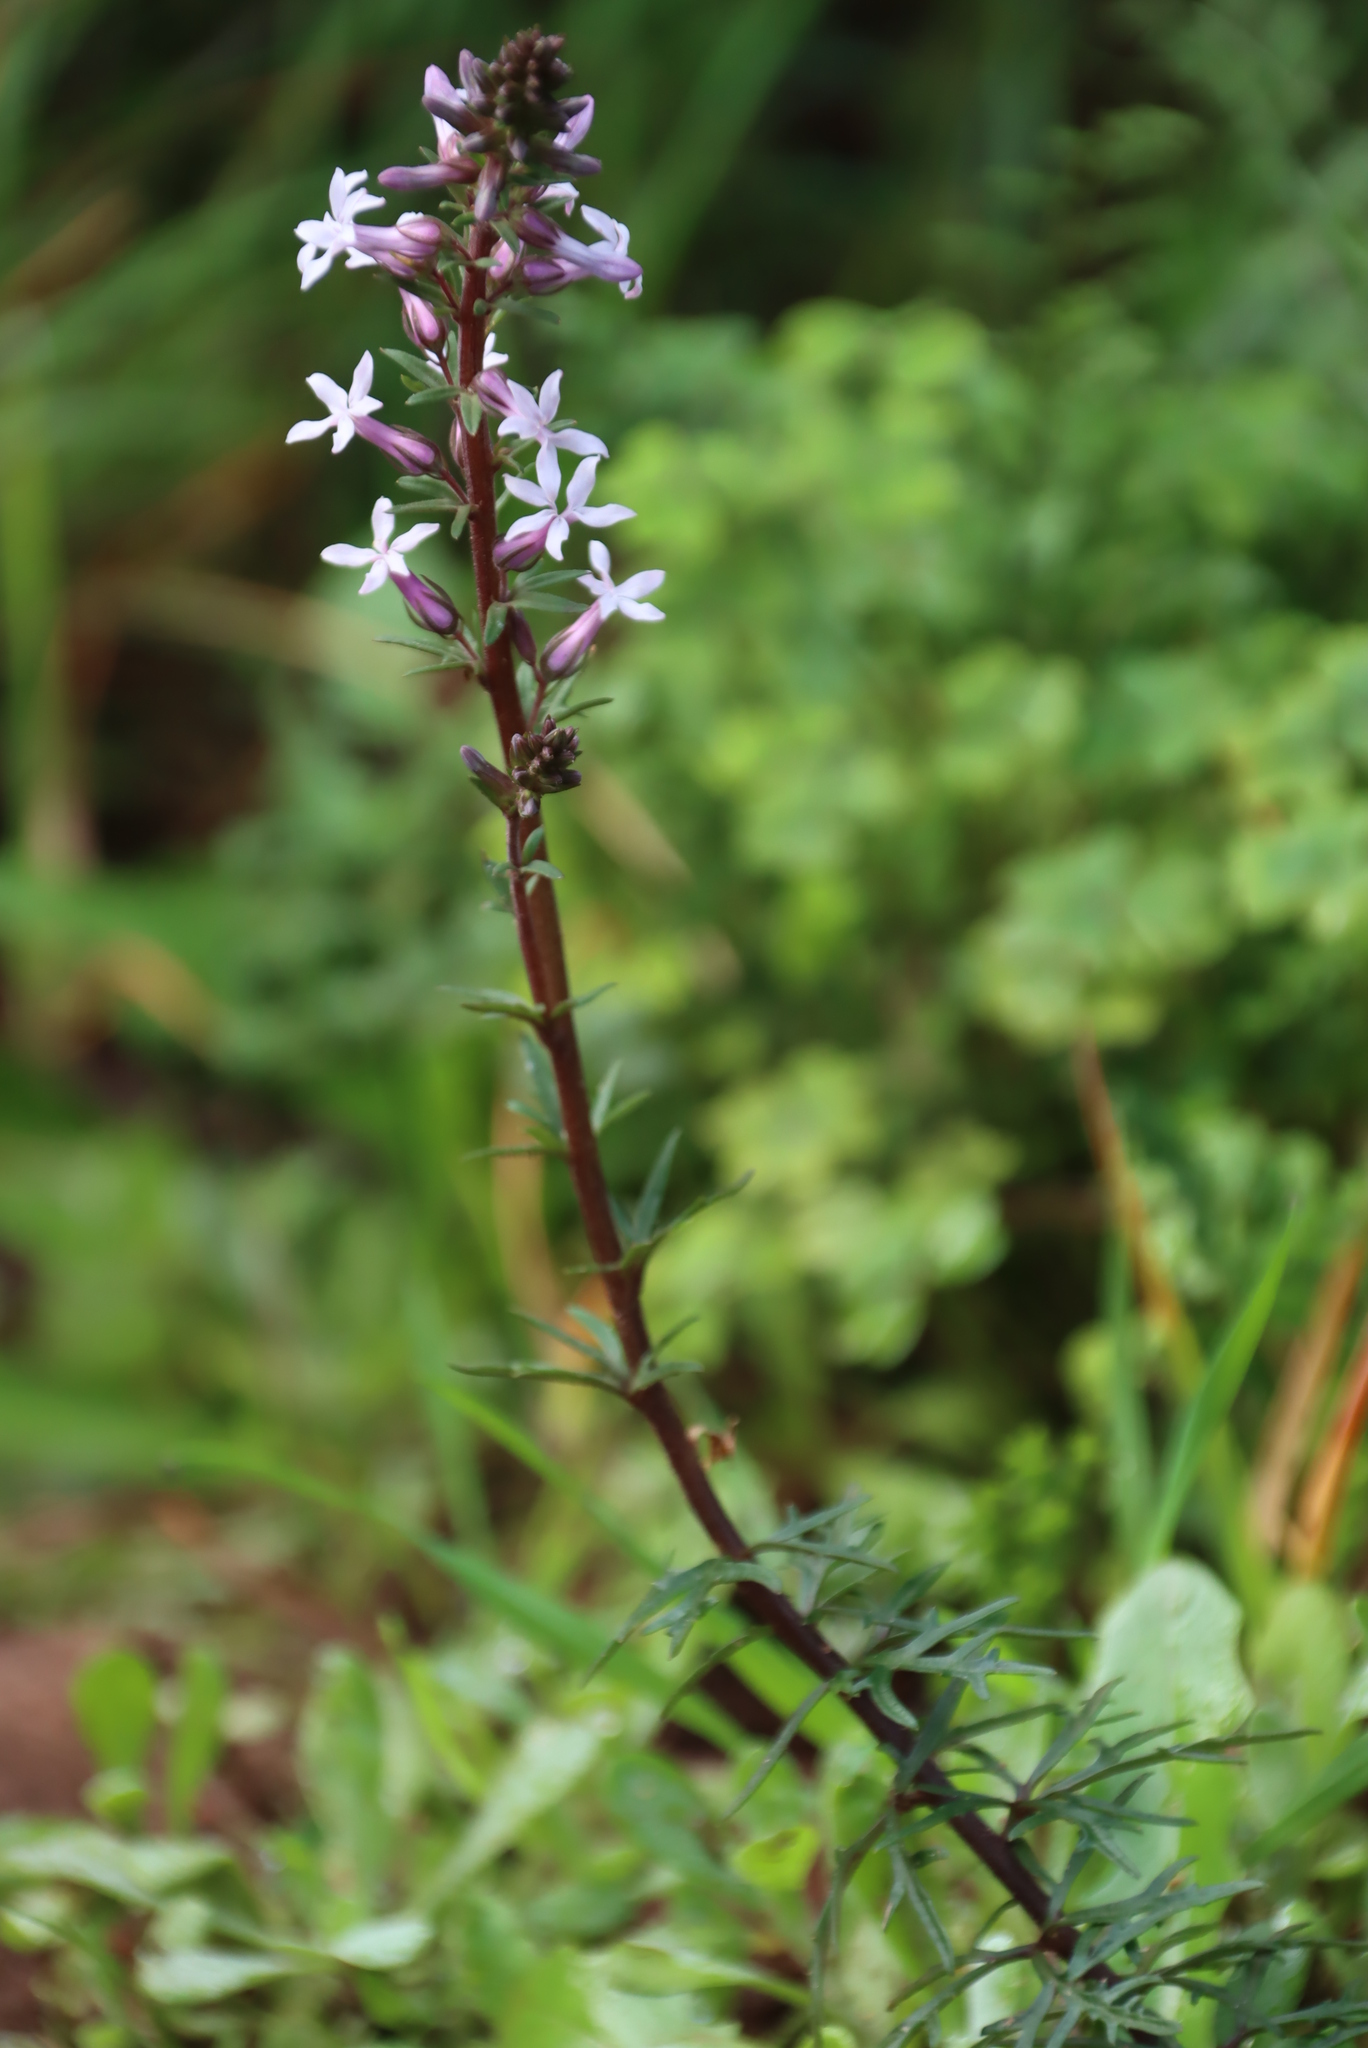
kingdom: Plantae
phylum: Tracheophyta
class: Magnoliopsida
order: Asterales
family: Campanulaceae
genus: Cyphia
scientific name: Cyphia bulbosa
